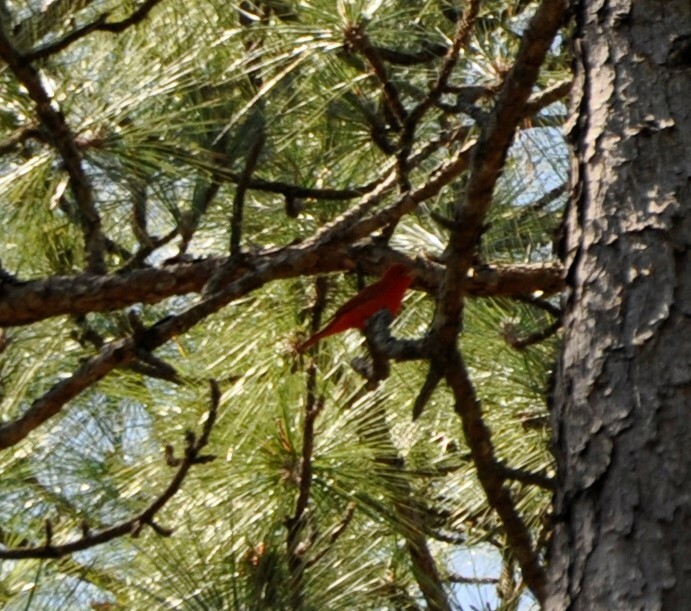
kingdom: Animalia
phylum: Chordata
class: Aves
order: Passeriformes
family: Cardinalidae
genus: Piranga
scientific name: Piranga rubra
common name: Summer tanager
